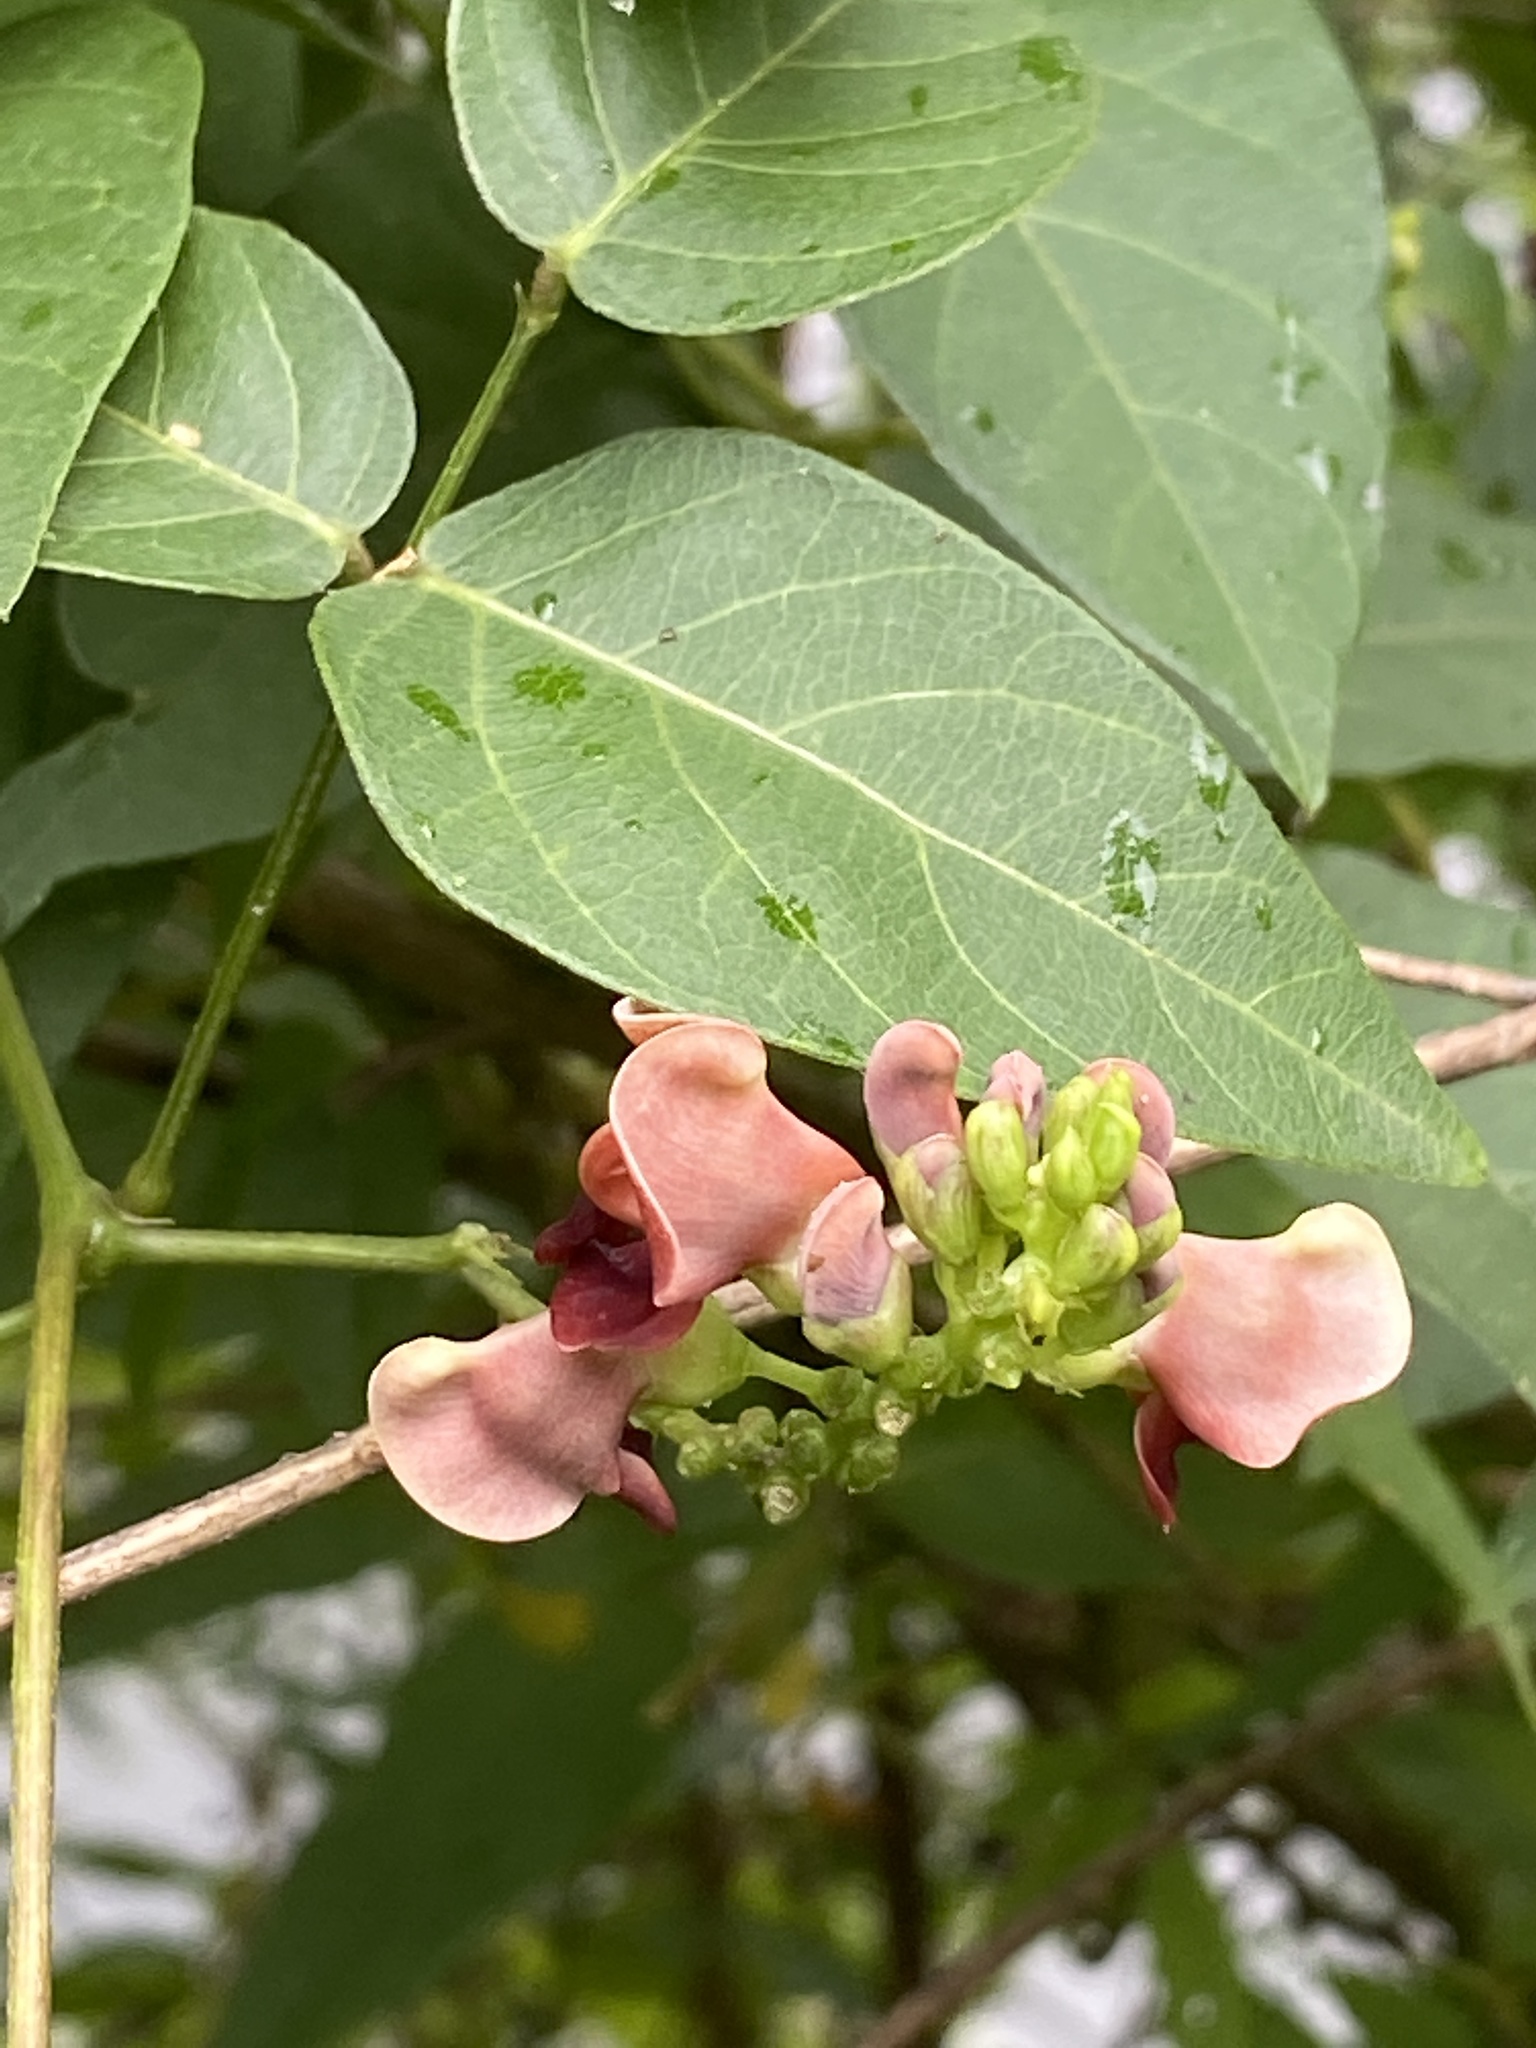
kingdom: Plantae
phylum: Tracheophyta
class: Magnoliopsida
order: Fabales
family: Fabaceae
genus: Apios
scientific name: Apios americana
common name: American potato-bean
